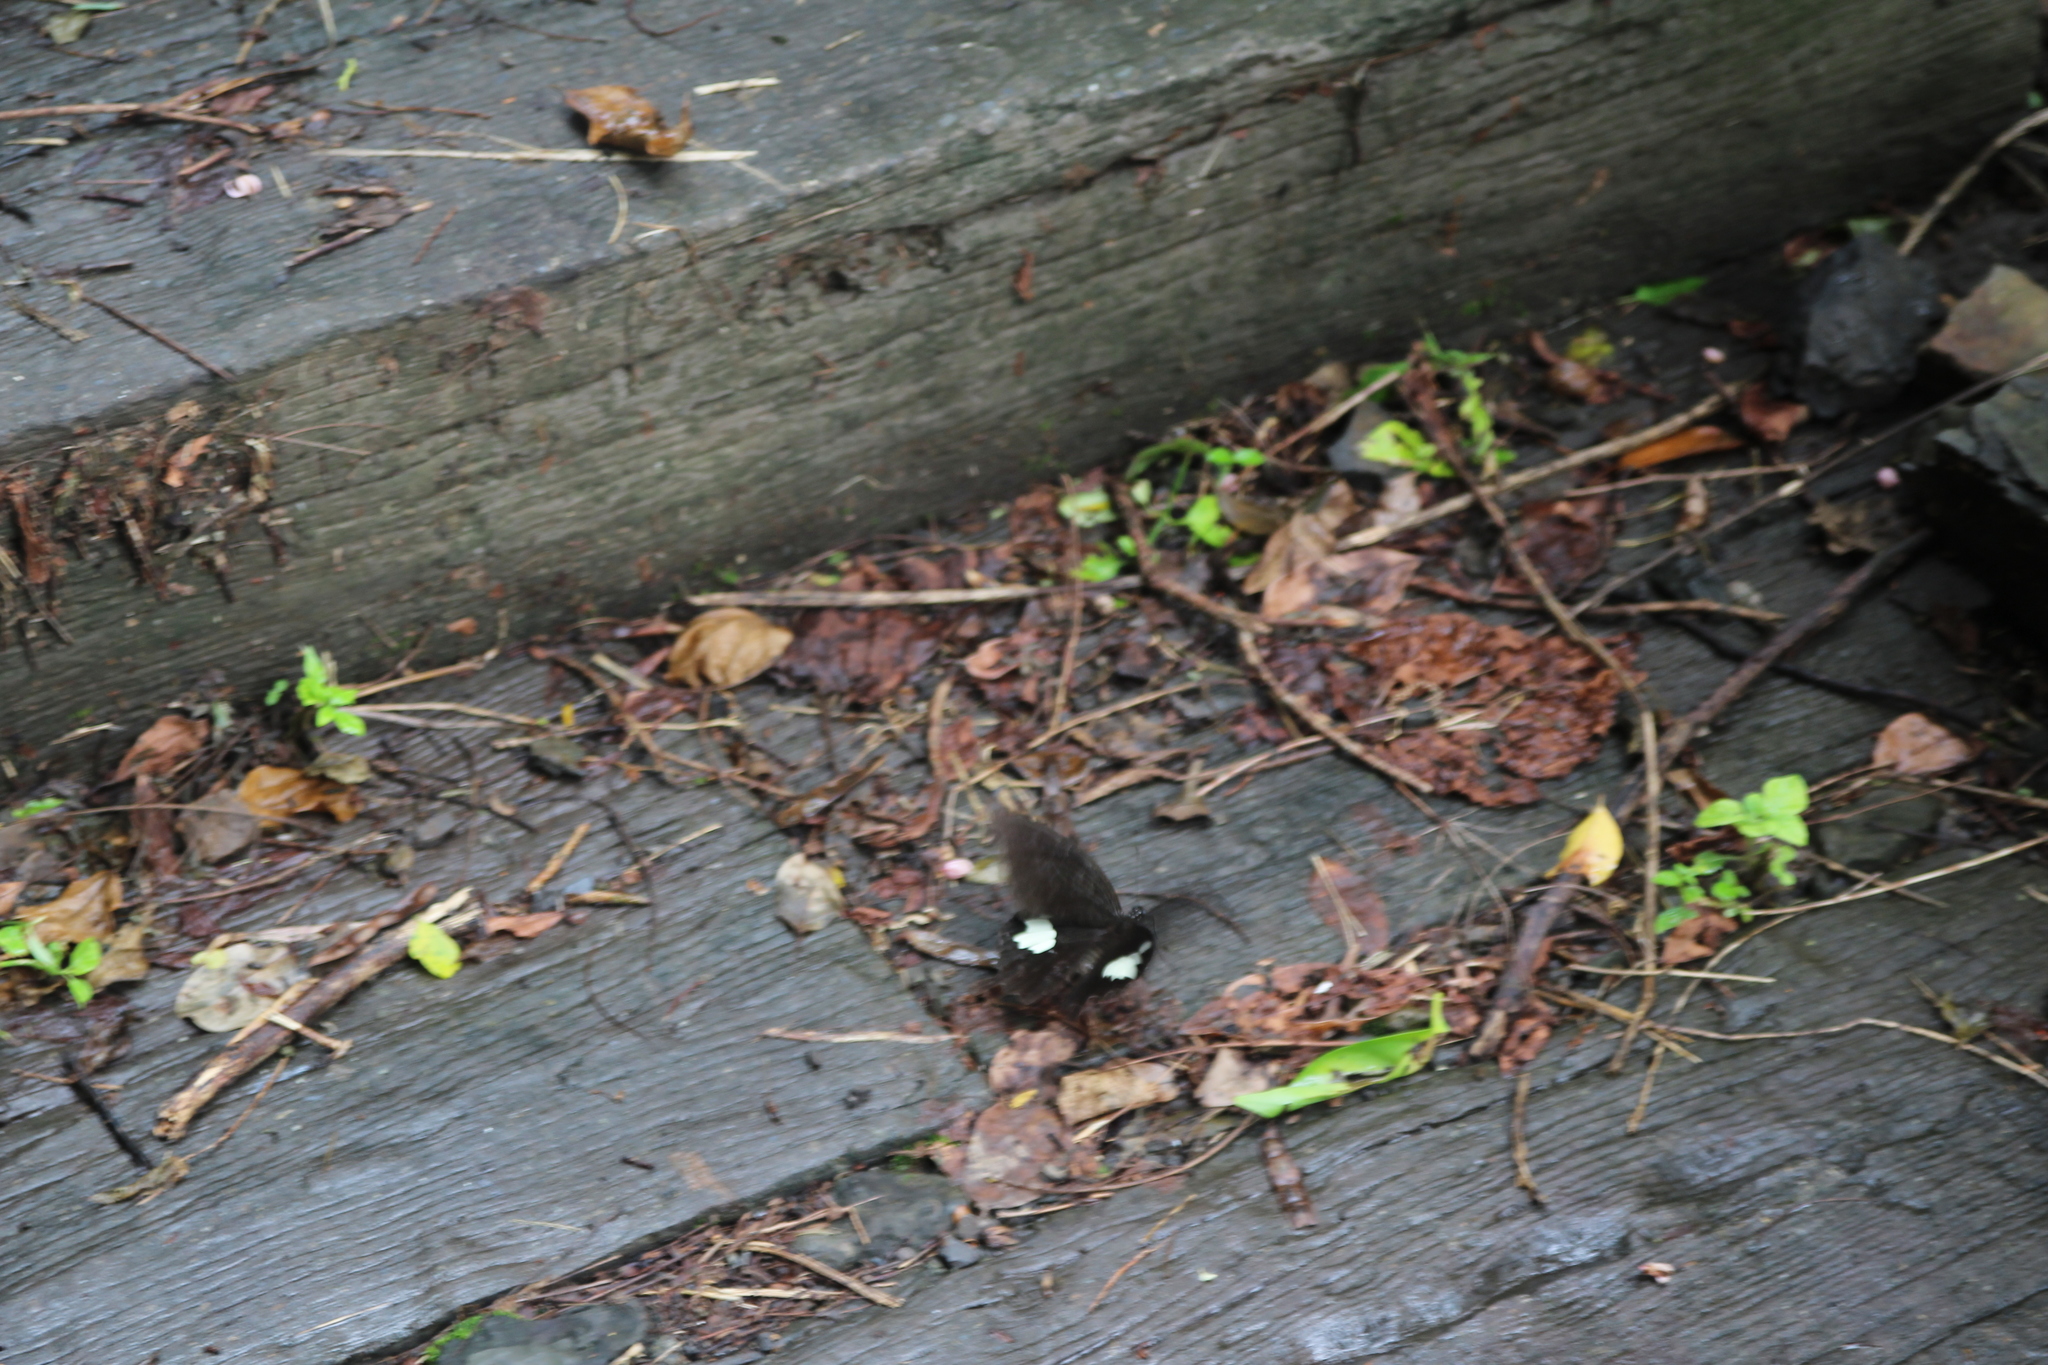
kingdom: Animalia
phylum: Arthropoda
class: Insecta
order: Lepidoptera
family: Papilionidae
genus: Papilio
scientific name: Papilio nephelus
